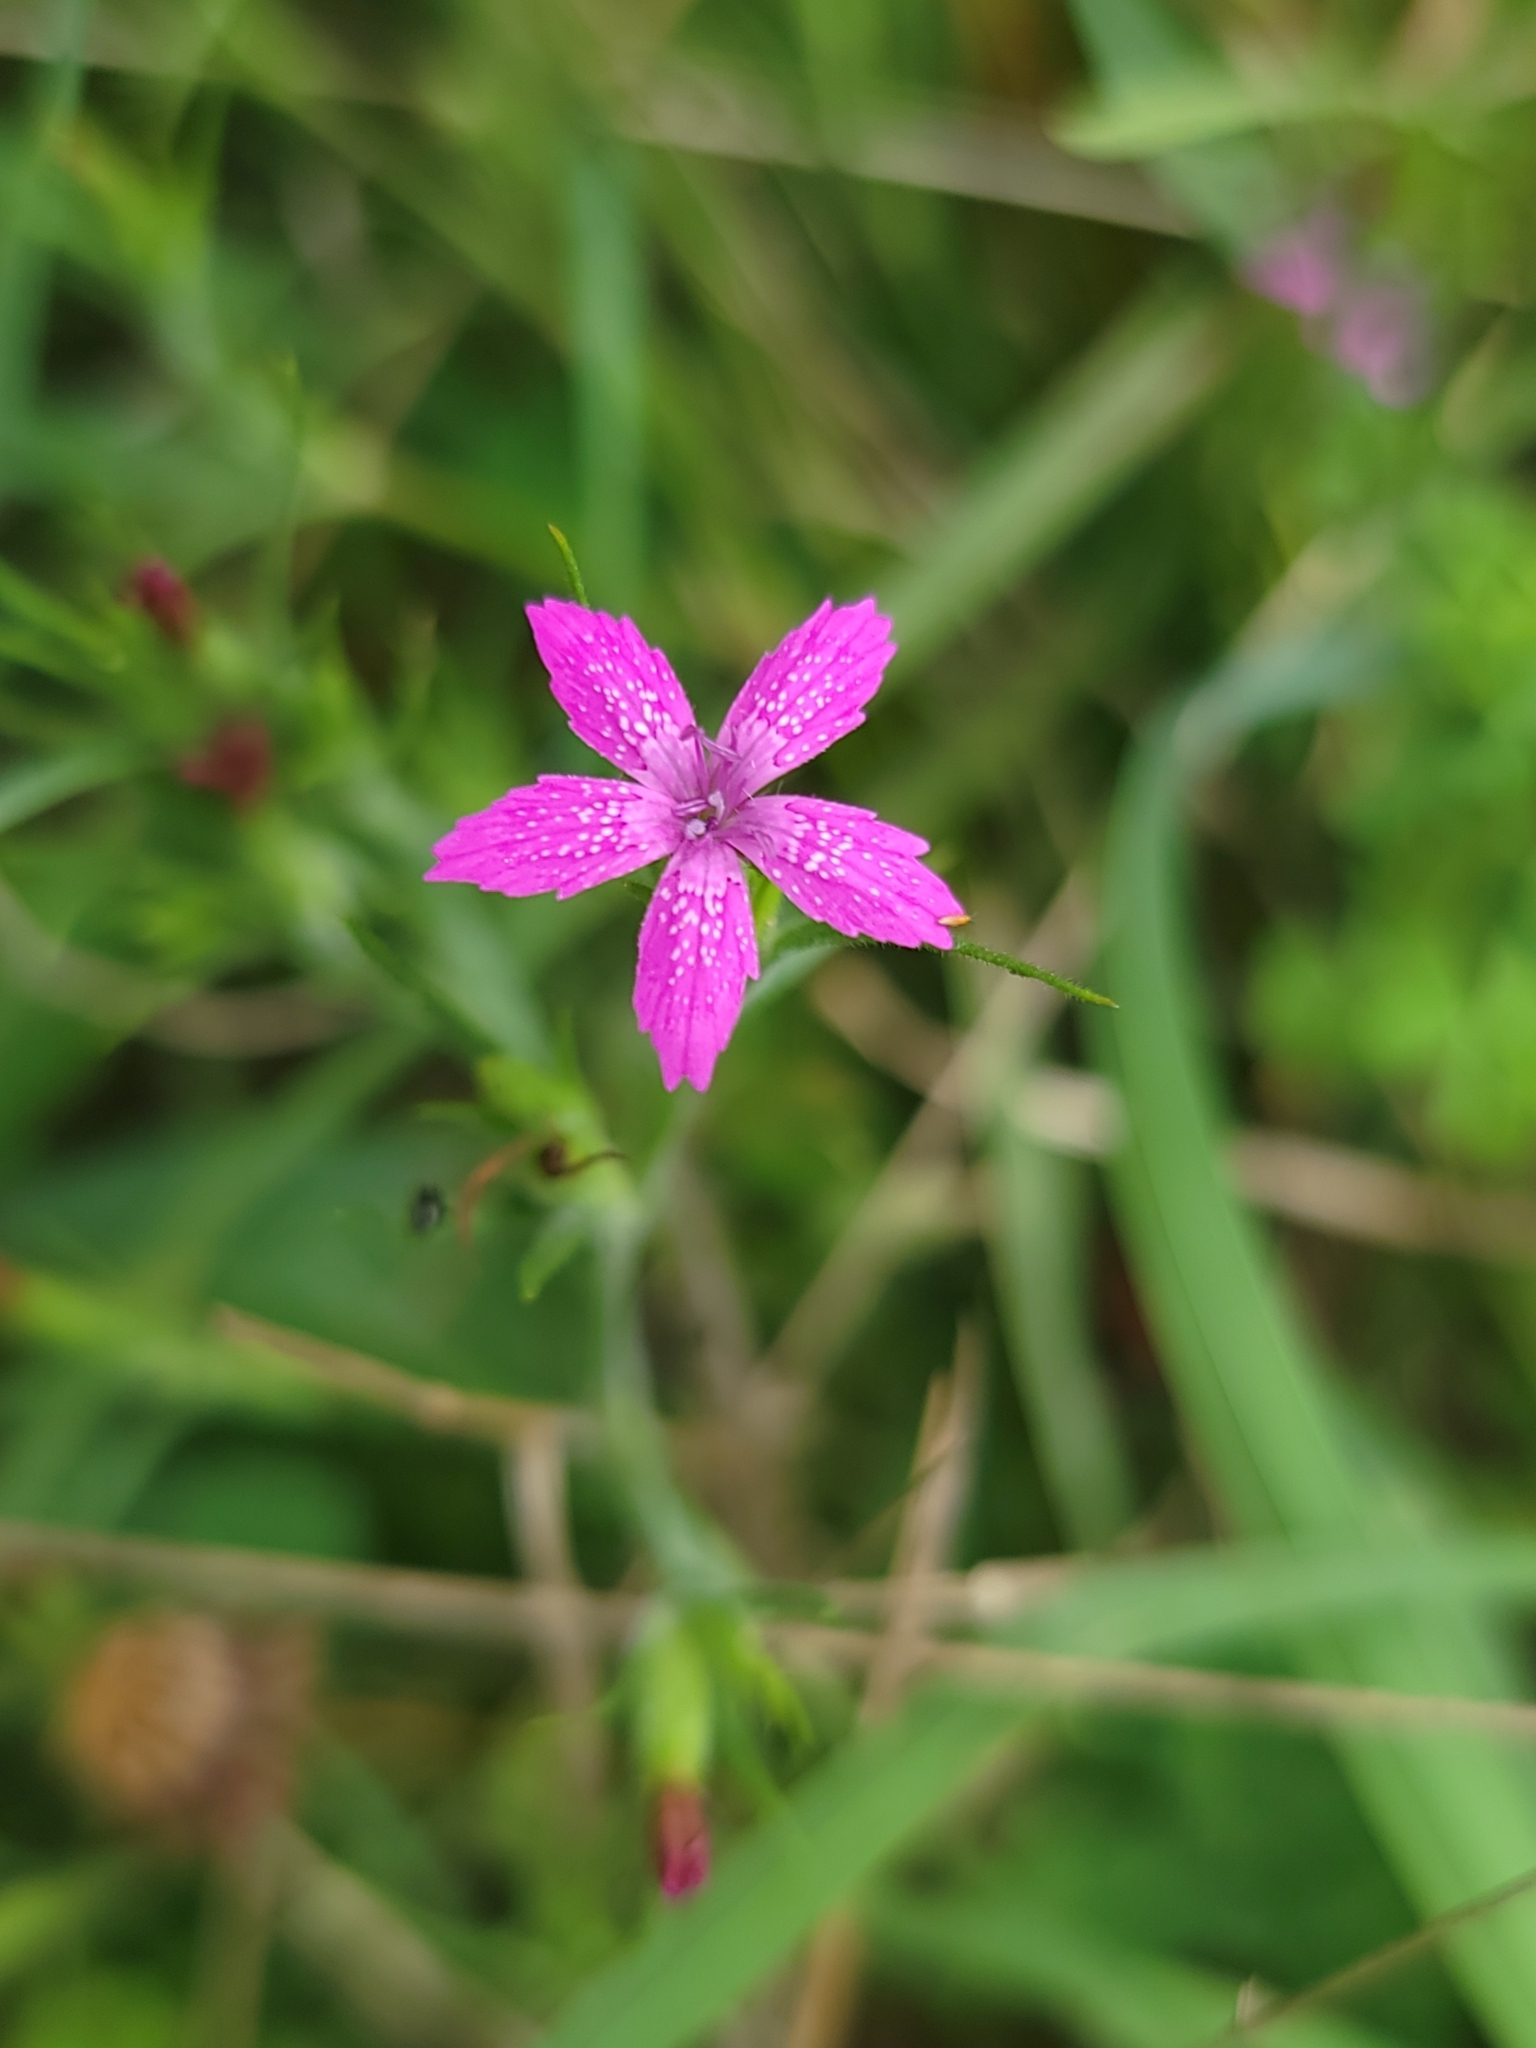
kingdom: Plantae
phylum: Tracheophyta
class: Magnoliopsida
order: Caryophyllales
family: Caryophyllaceae
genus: Dianthus
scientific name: Dianthus armeria
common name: Deptford pink
